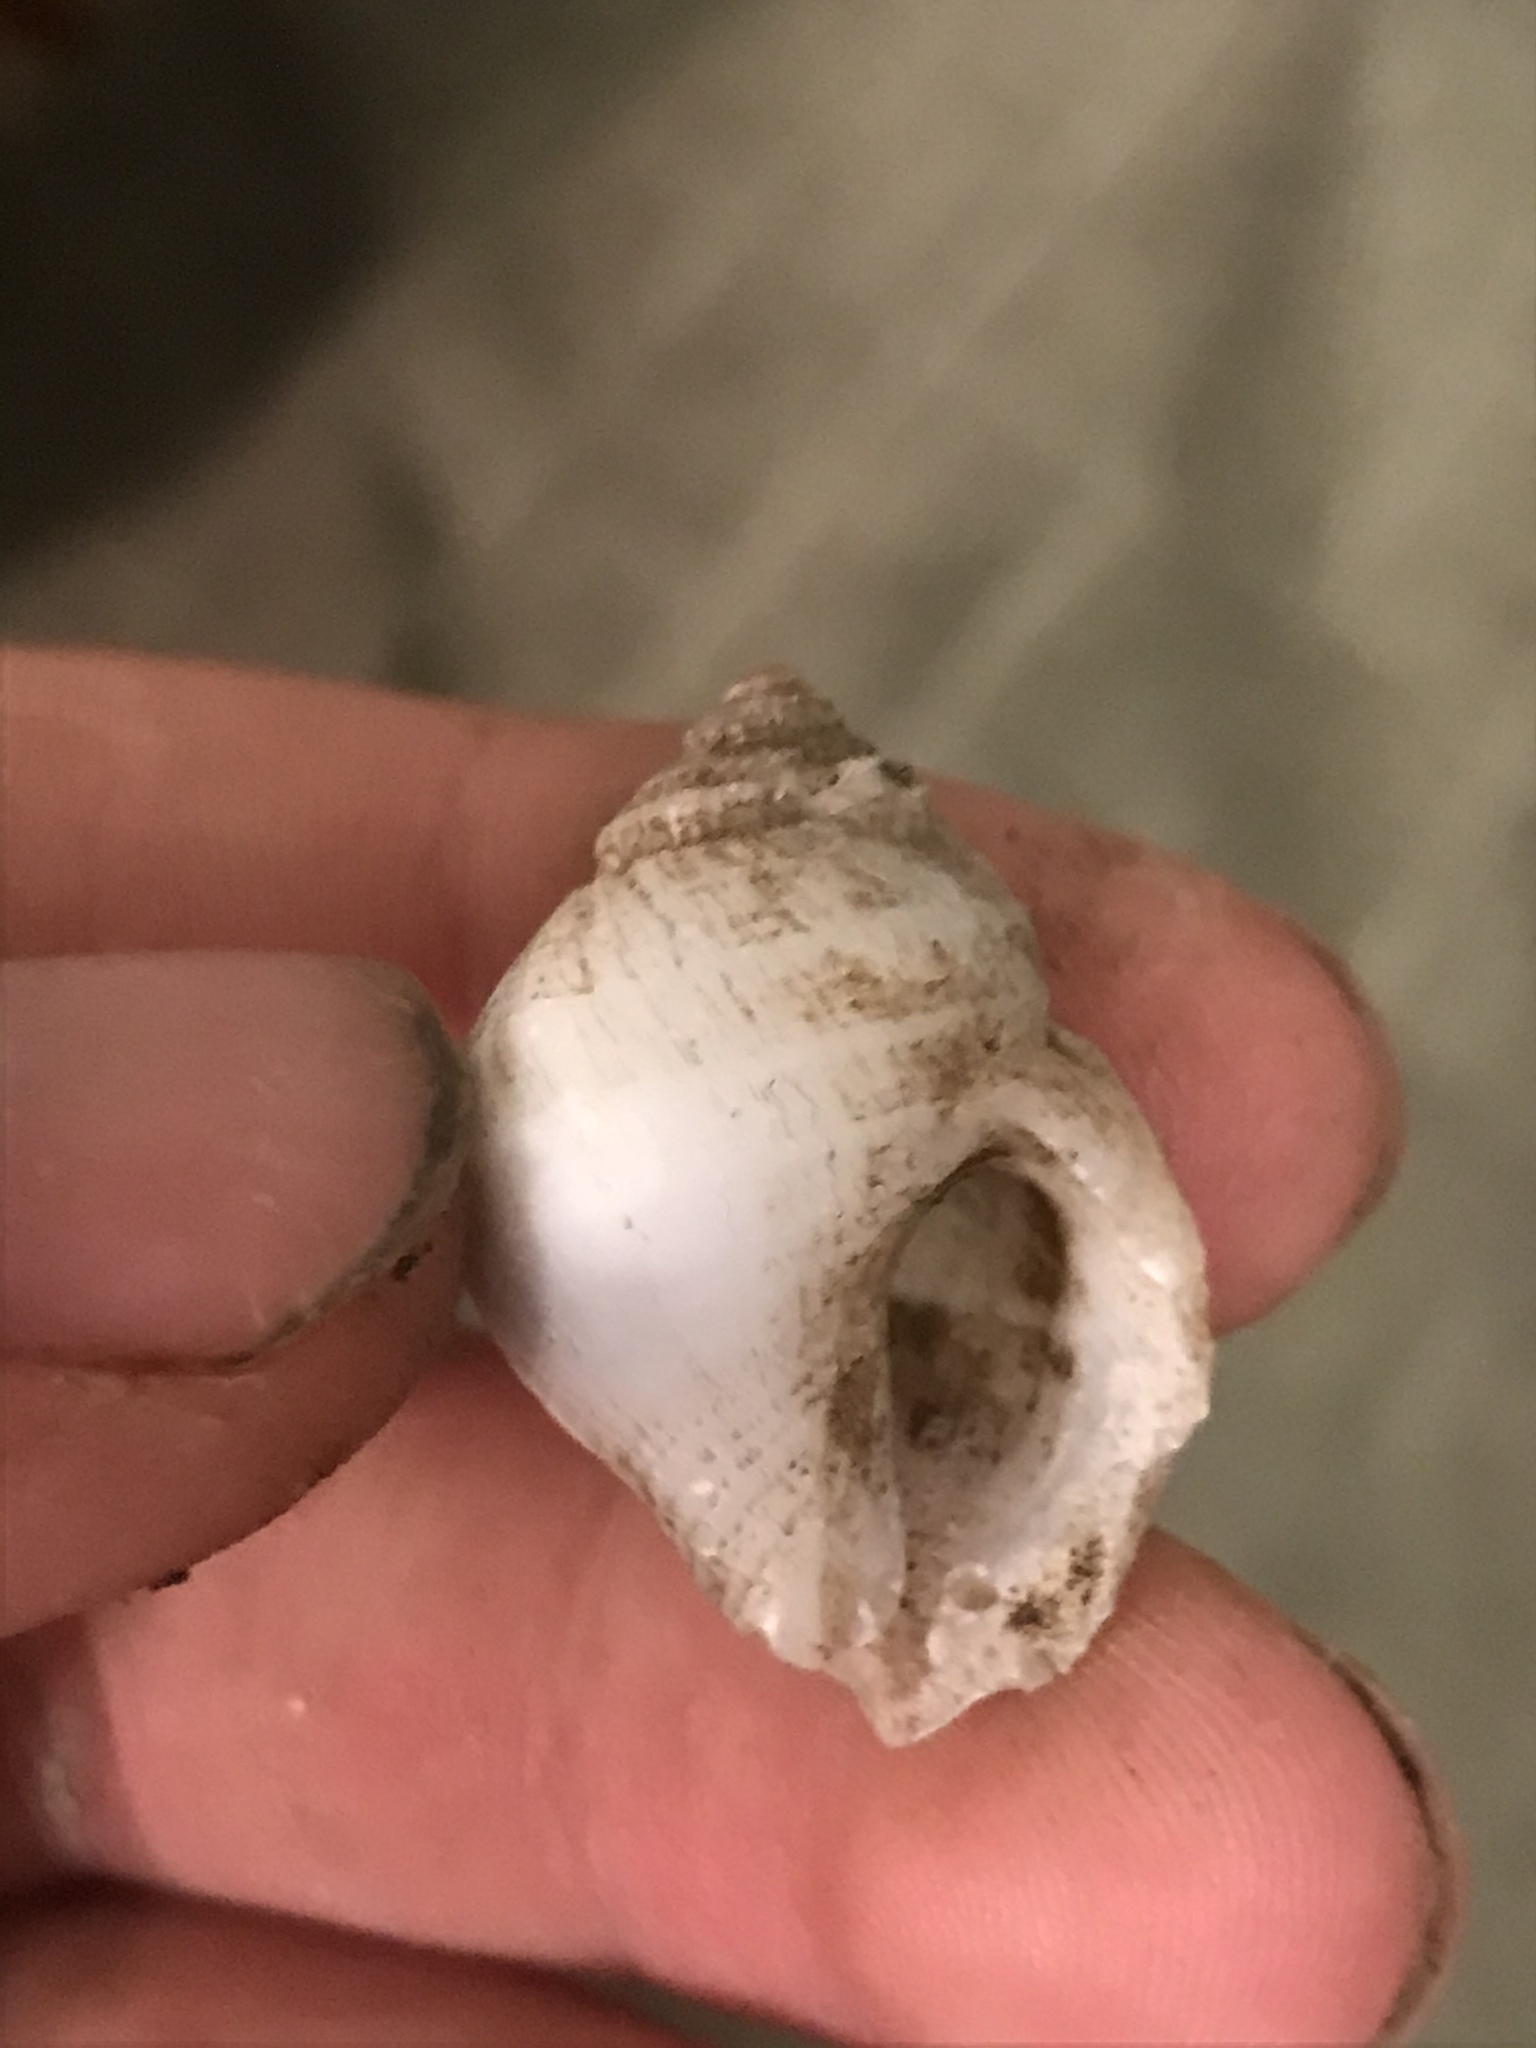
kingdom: Animalia
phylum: Mollusca
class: Gastropoda
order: Neogastropoda
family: Muricidae
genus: Nucella
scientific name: Nucella lamellosa
